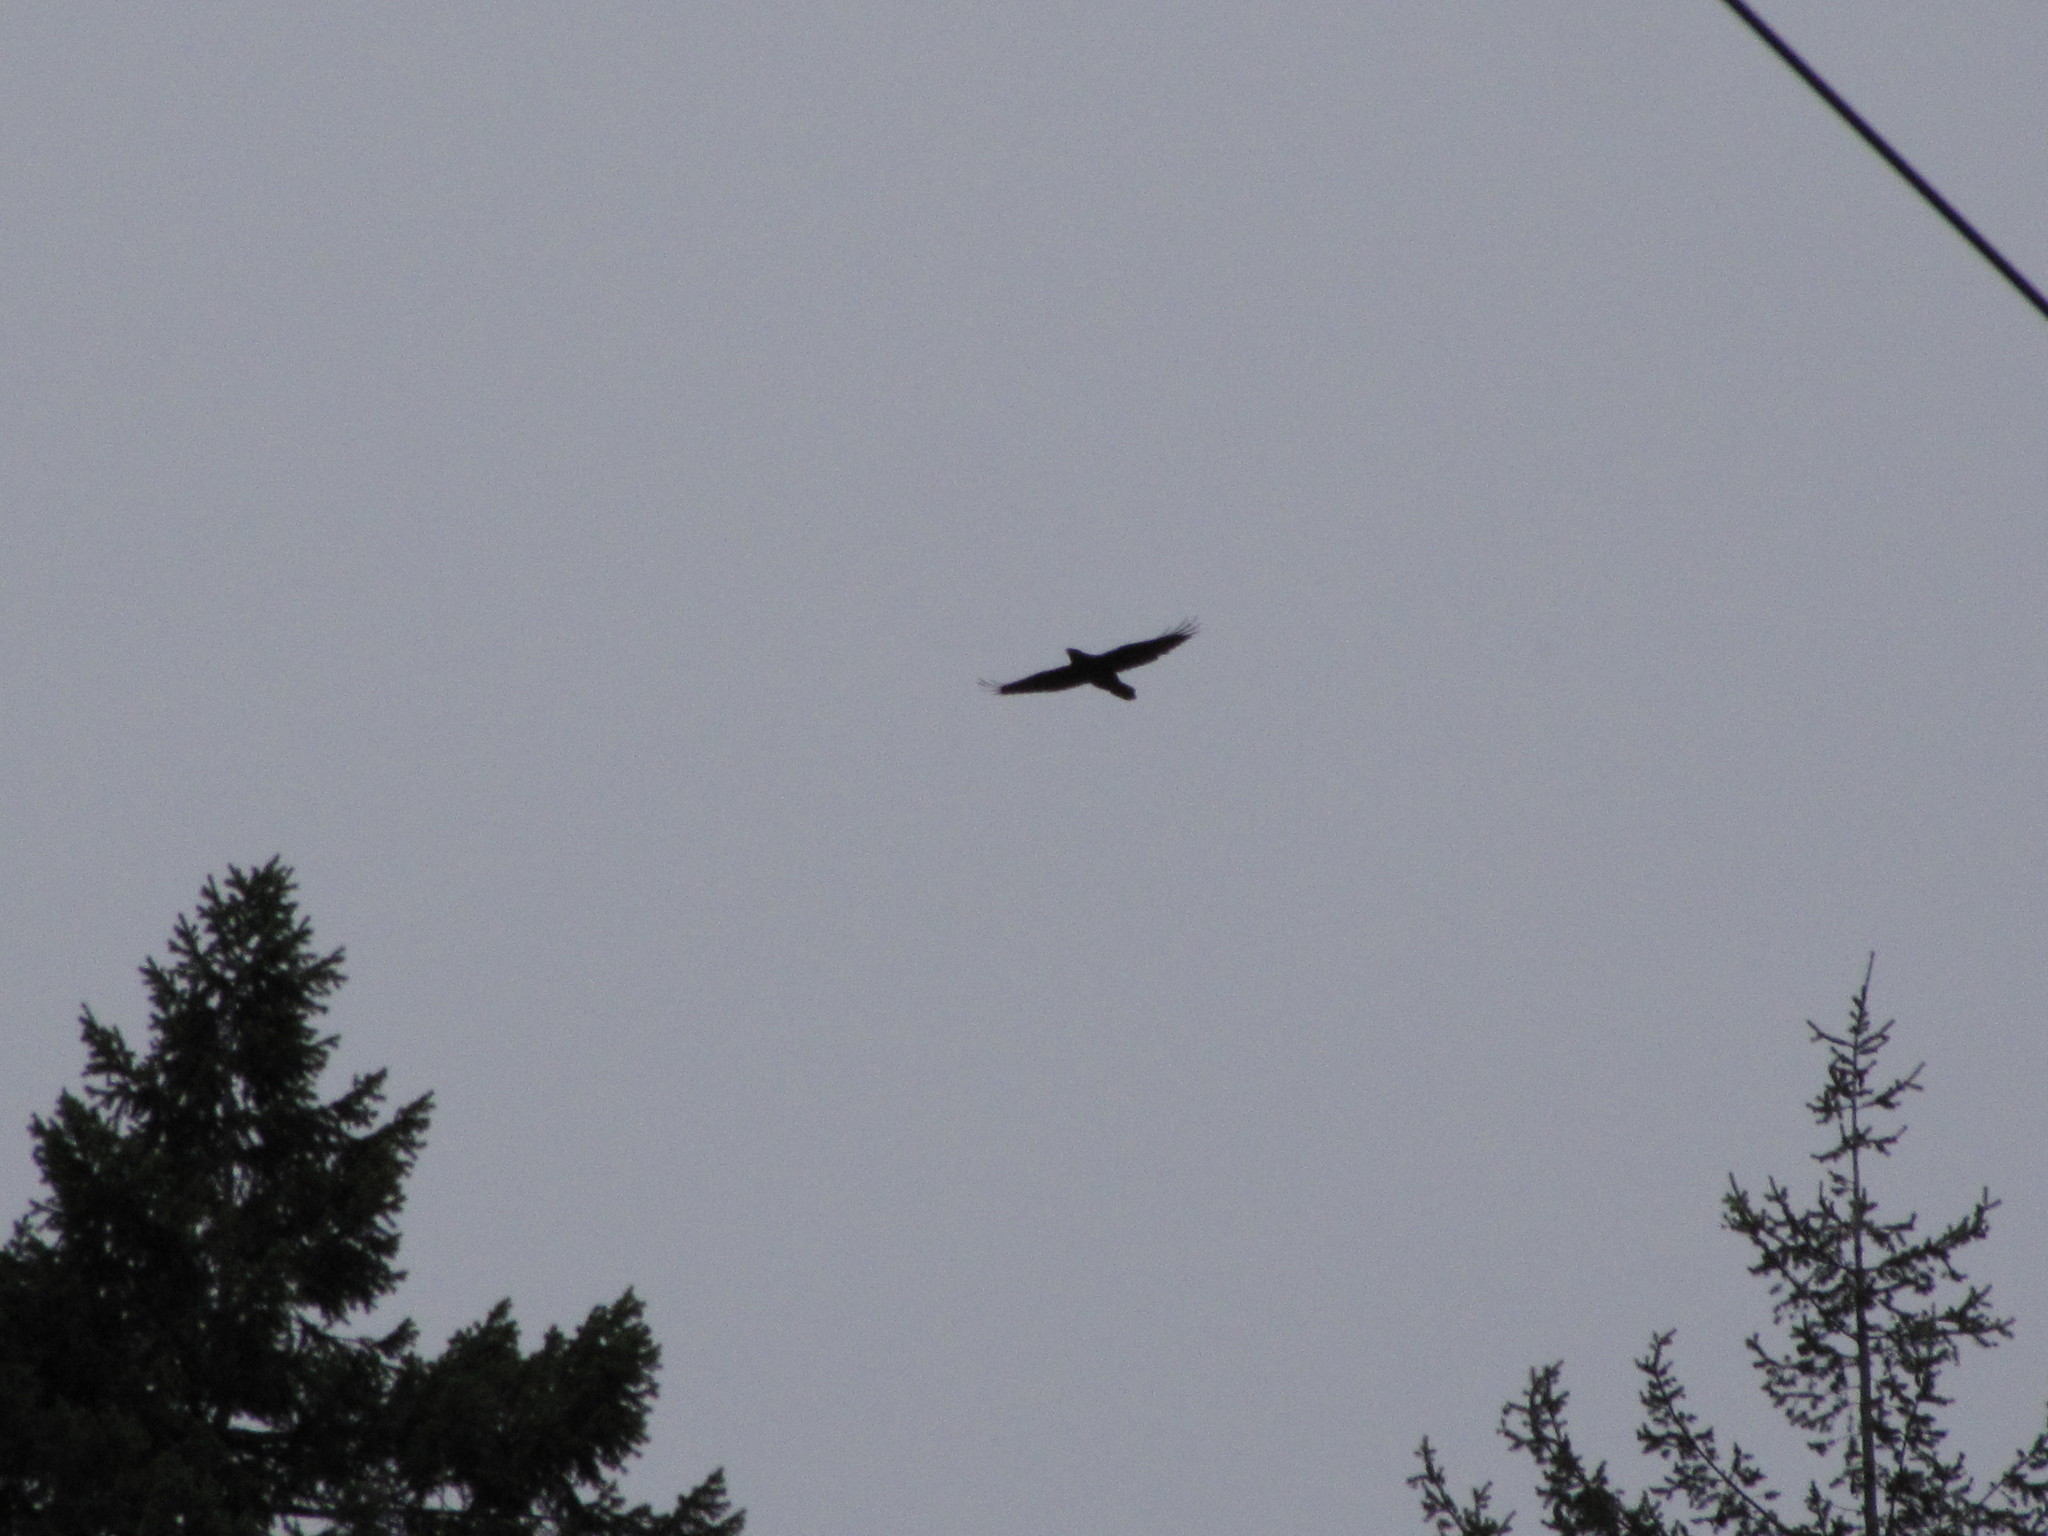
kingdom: Animalia
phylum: Chordata
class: Aves
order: Passeriformes
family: Corvidae
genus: Corvus
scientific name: Corvus corax
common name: Common raven
